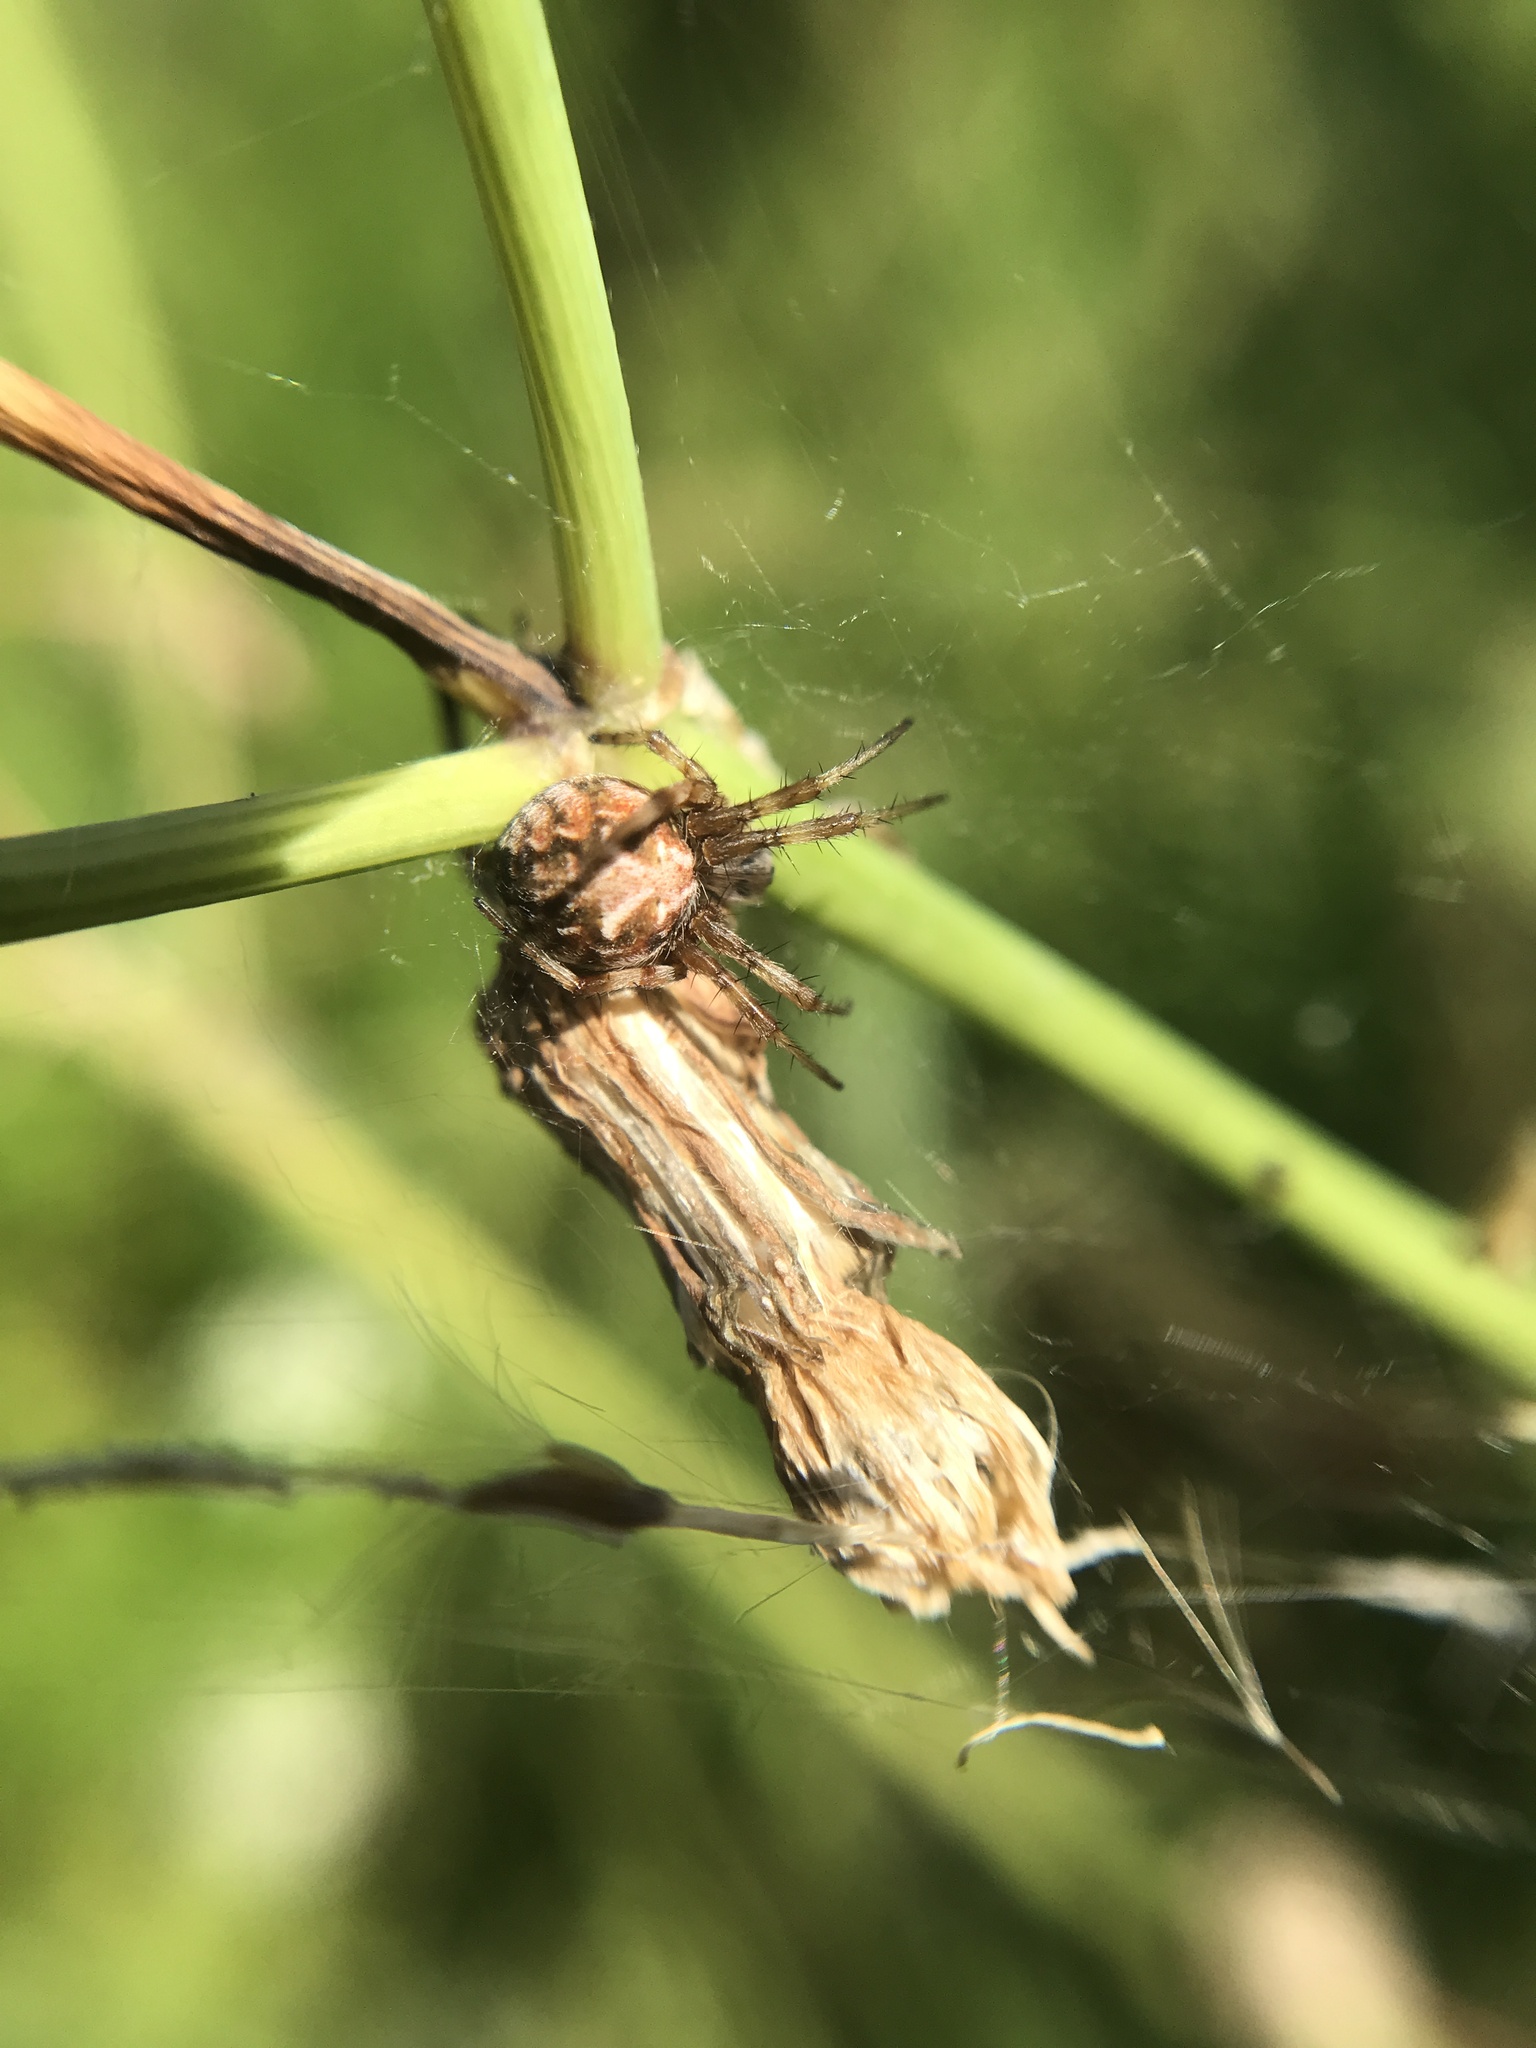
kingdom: Animalia
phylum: Arthropoda
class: Arachnida
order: Araneae
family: Araneidae
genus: Metepeira
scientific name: Metepeira
